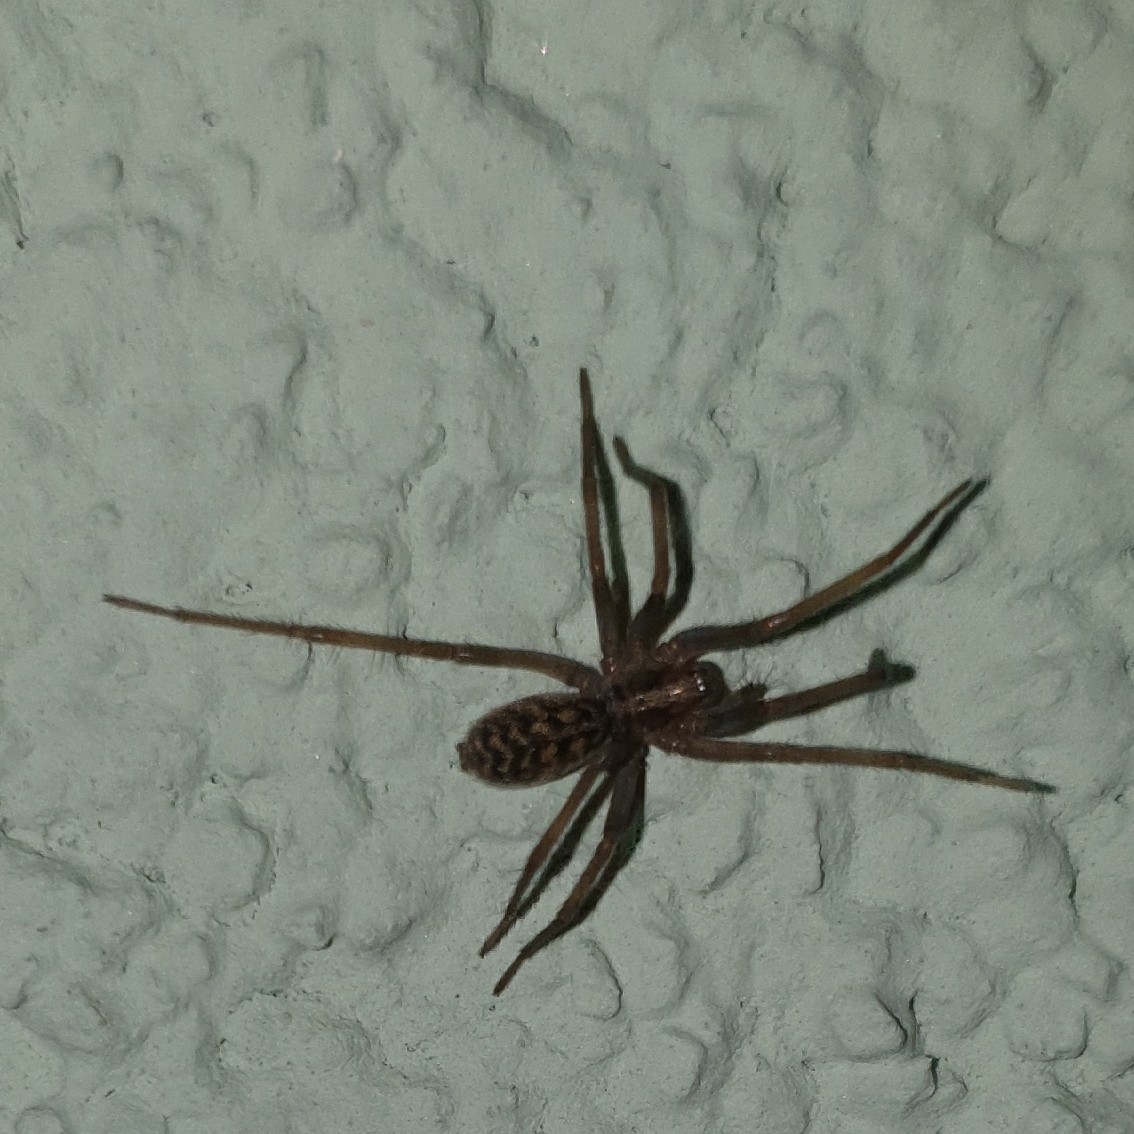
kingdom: Animalia
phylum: Arthropoda
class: Arachnida
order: Araneae
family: Agelenidae
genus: Eratigena
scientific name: Eratigena atrica
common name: Giant house spider
